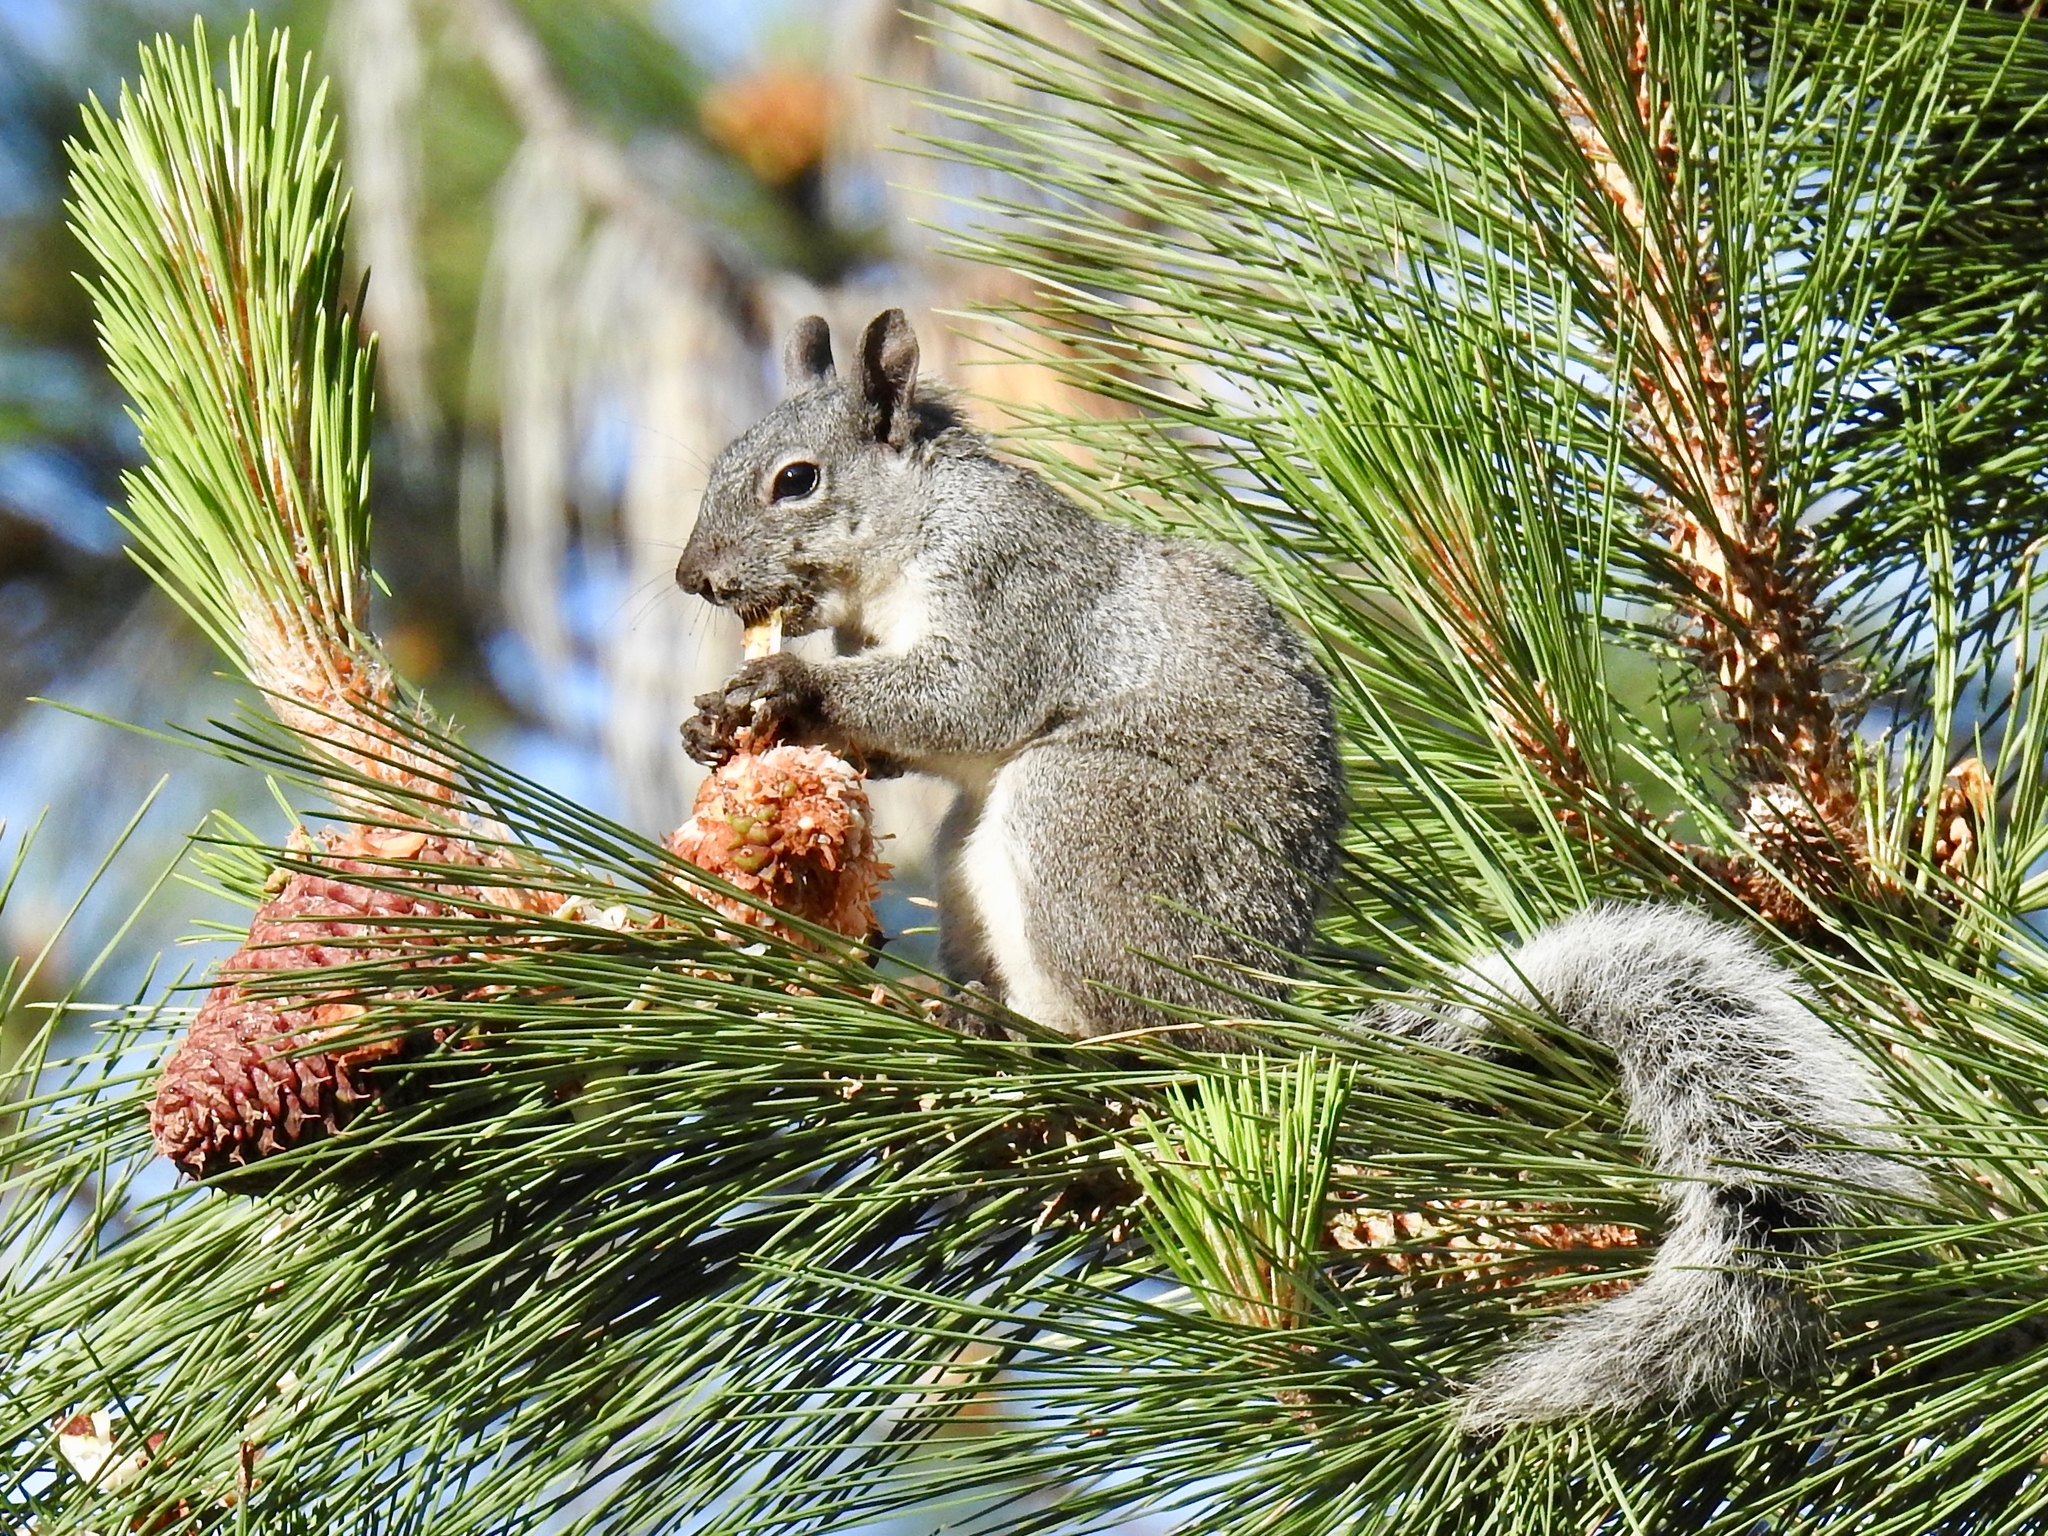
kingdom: Animalia
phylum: Chordata
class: Mammalia
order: Rodentia
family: Sciuridae
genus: Sciurus
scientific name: Sciurus griseus
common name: Western gray squirrel
